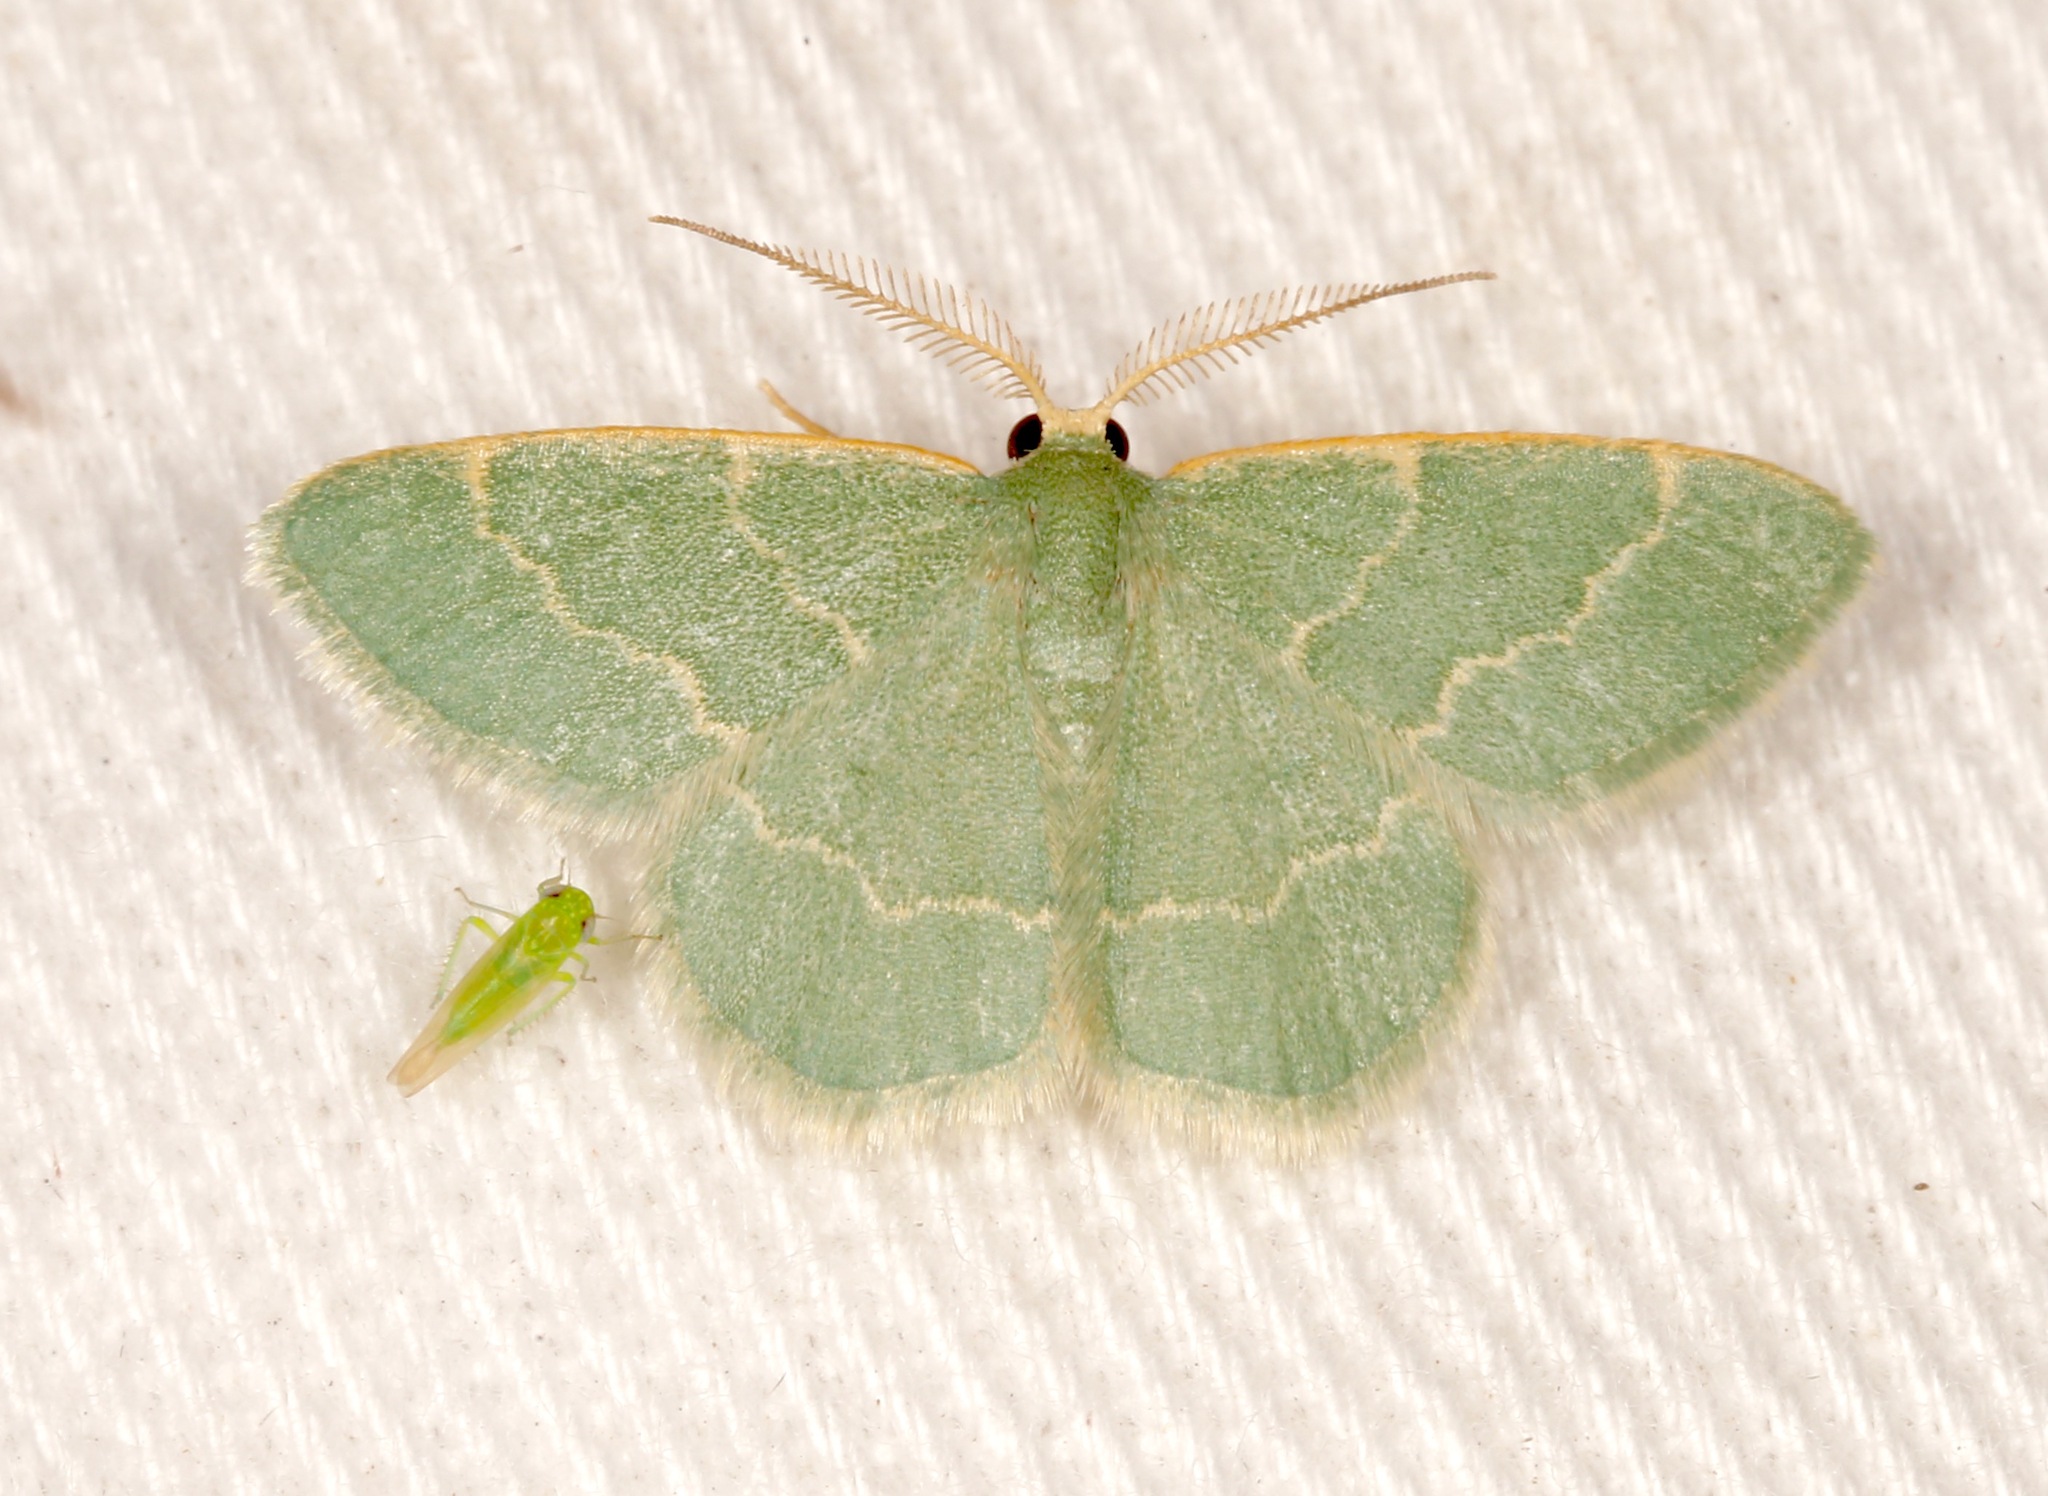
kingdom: Animalia
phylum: Arthropoda
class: Insecta
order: Lepidoptera
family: Geometridae
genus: Chlorochlamys
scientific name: Chlorochlamys phyllinaria
